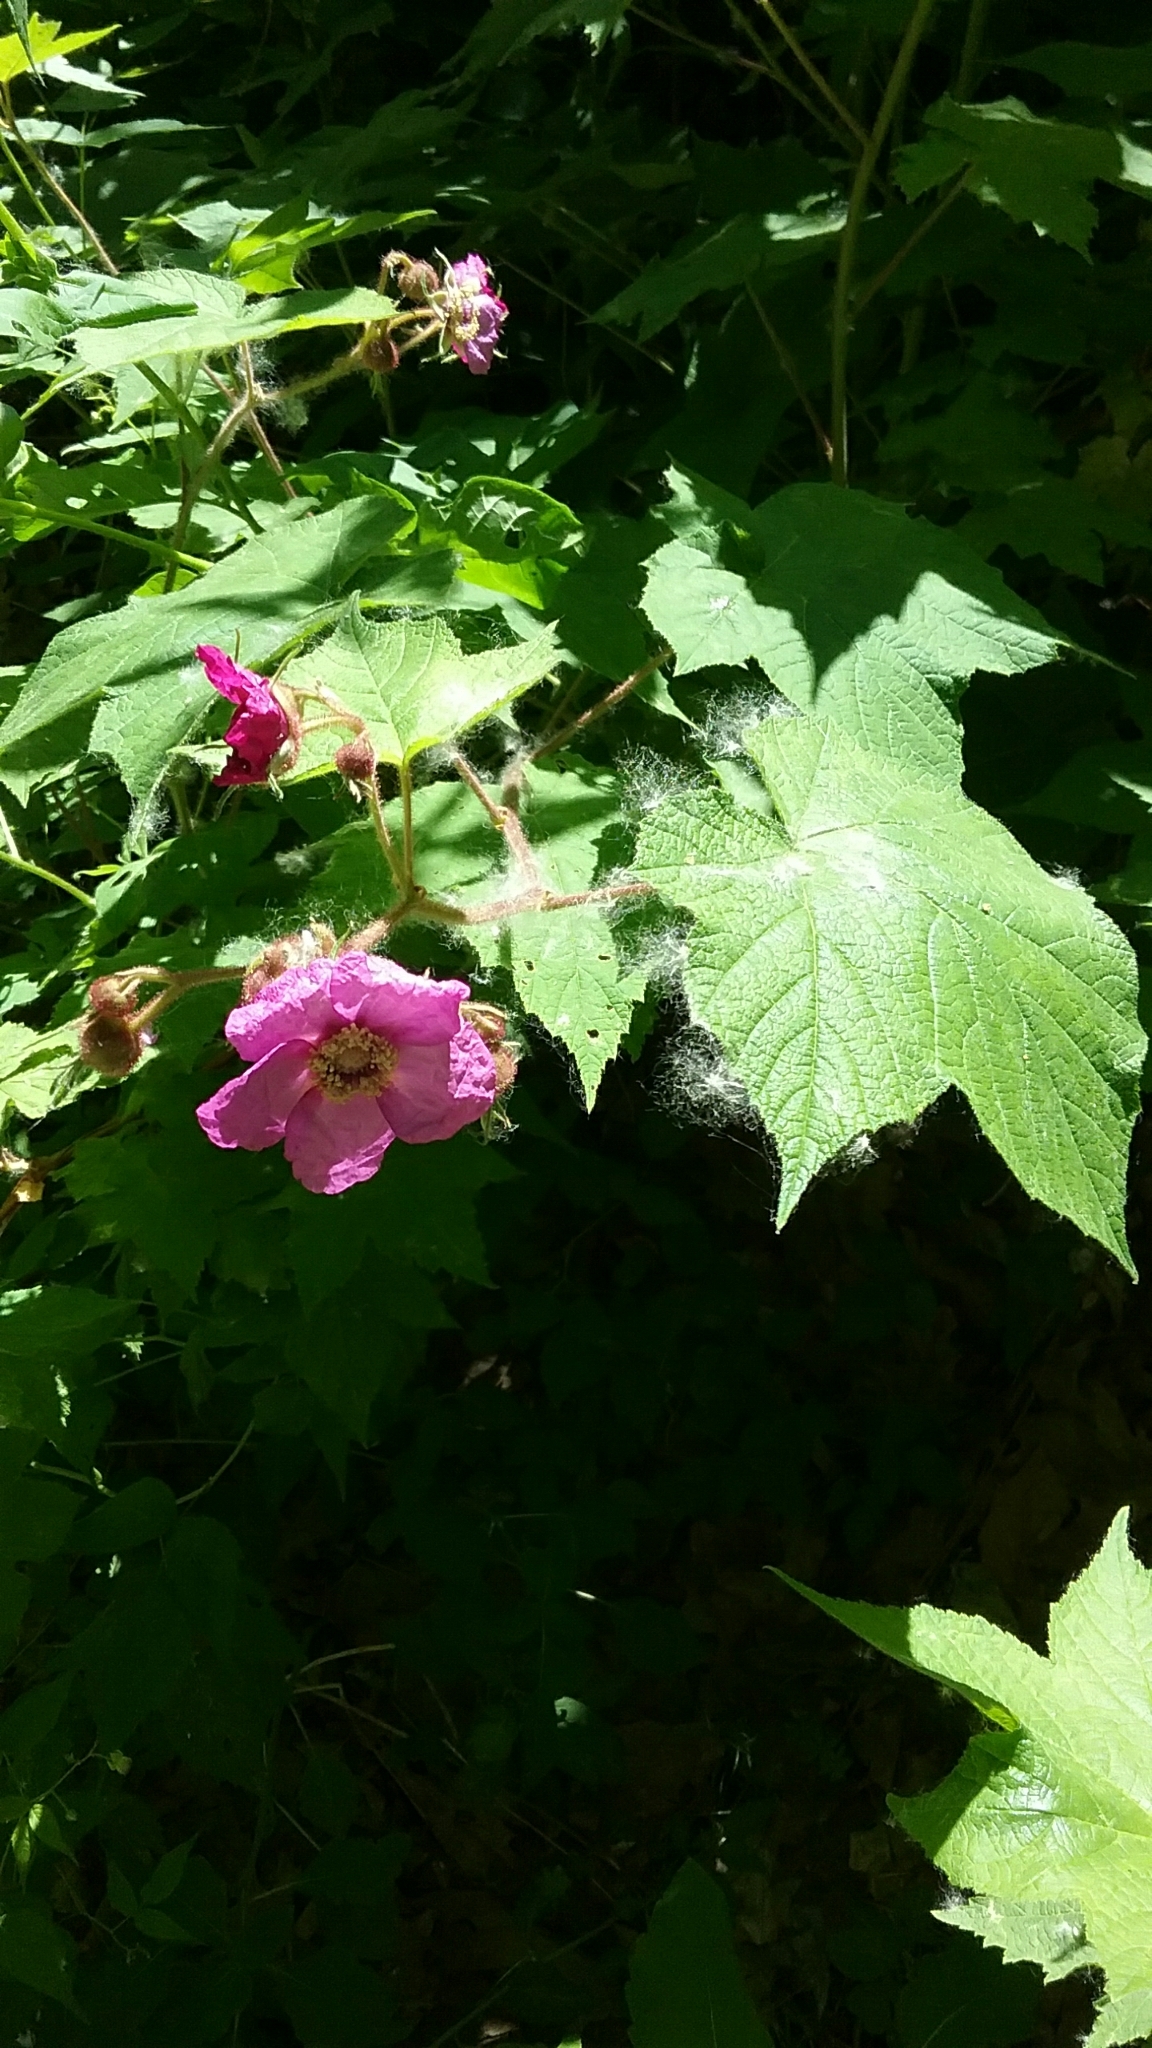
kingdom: Plantae
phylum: Tracheophyta
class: Magnoliopsida
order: Rosales
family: Rosaceae
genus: Rubus
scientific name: Rubus odoratus
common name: Purple-flowered raspberry
